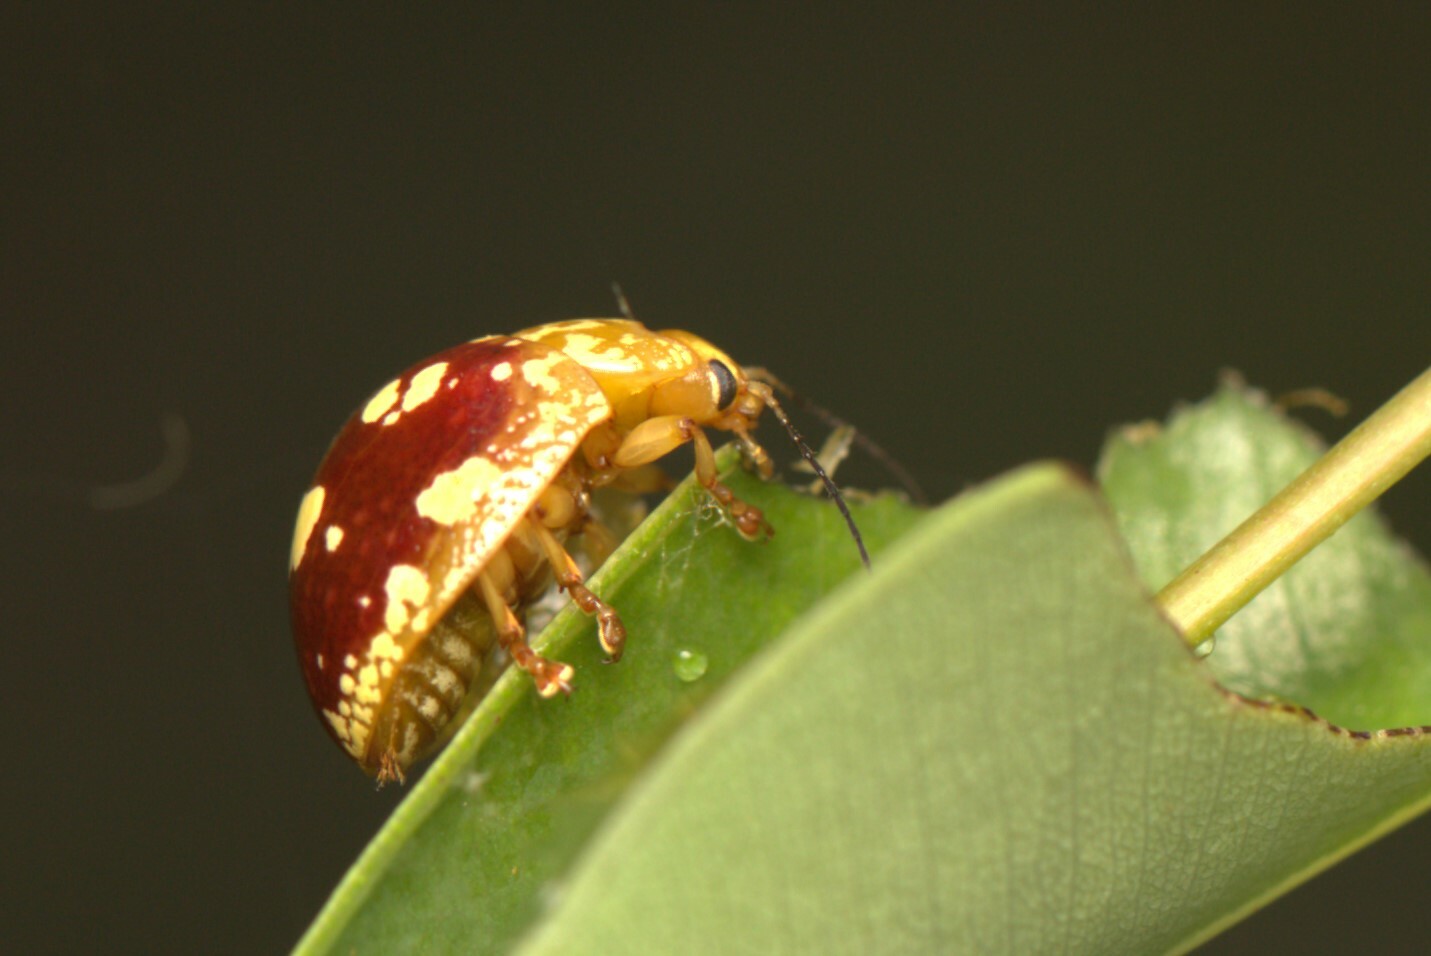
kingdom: Animalia
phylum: Arthropoda
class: Insecta
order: Coleoptera
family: Chrysomelidae
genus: Paropsis
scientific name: Paropsis maculata
